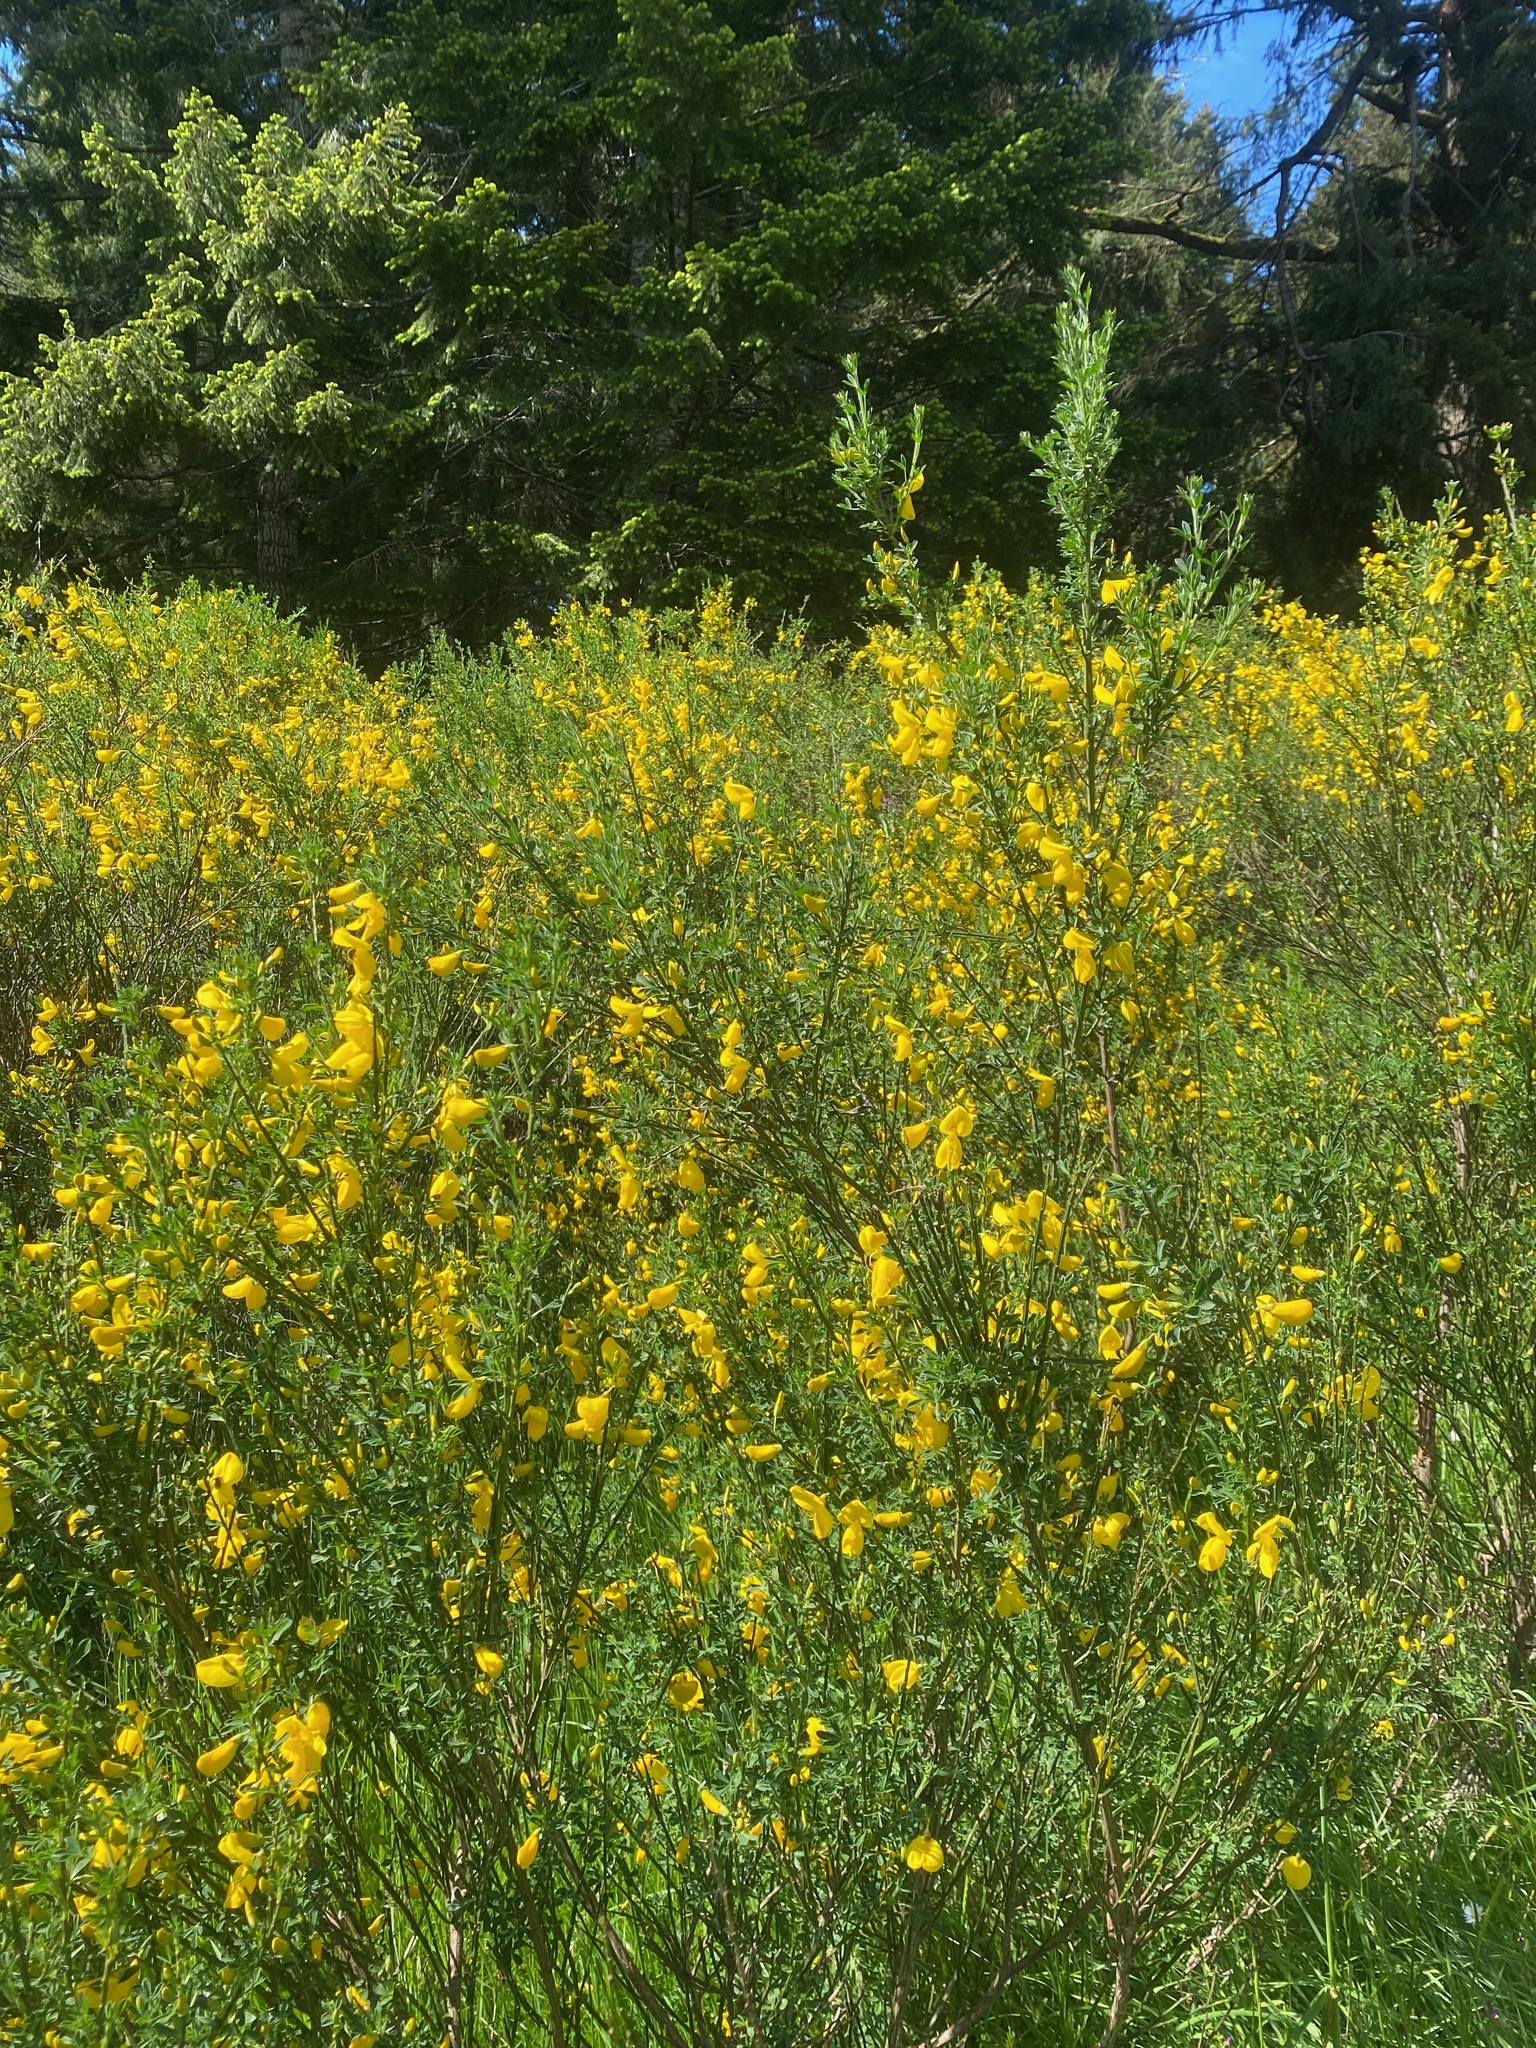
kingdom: Plantae
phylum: Tracheophyta
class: Magnoliopsida
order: Fabales
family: Fabaceae
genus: Cytisus
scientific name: Cytisus scoparius
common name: Scotch broom
